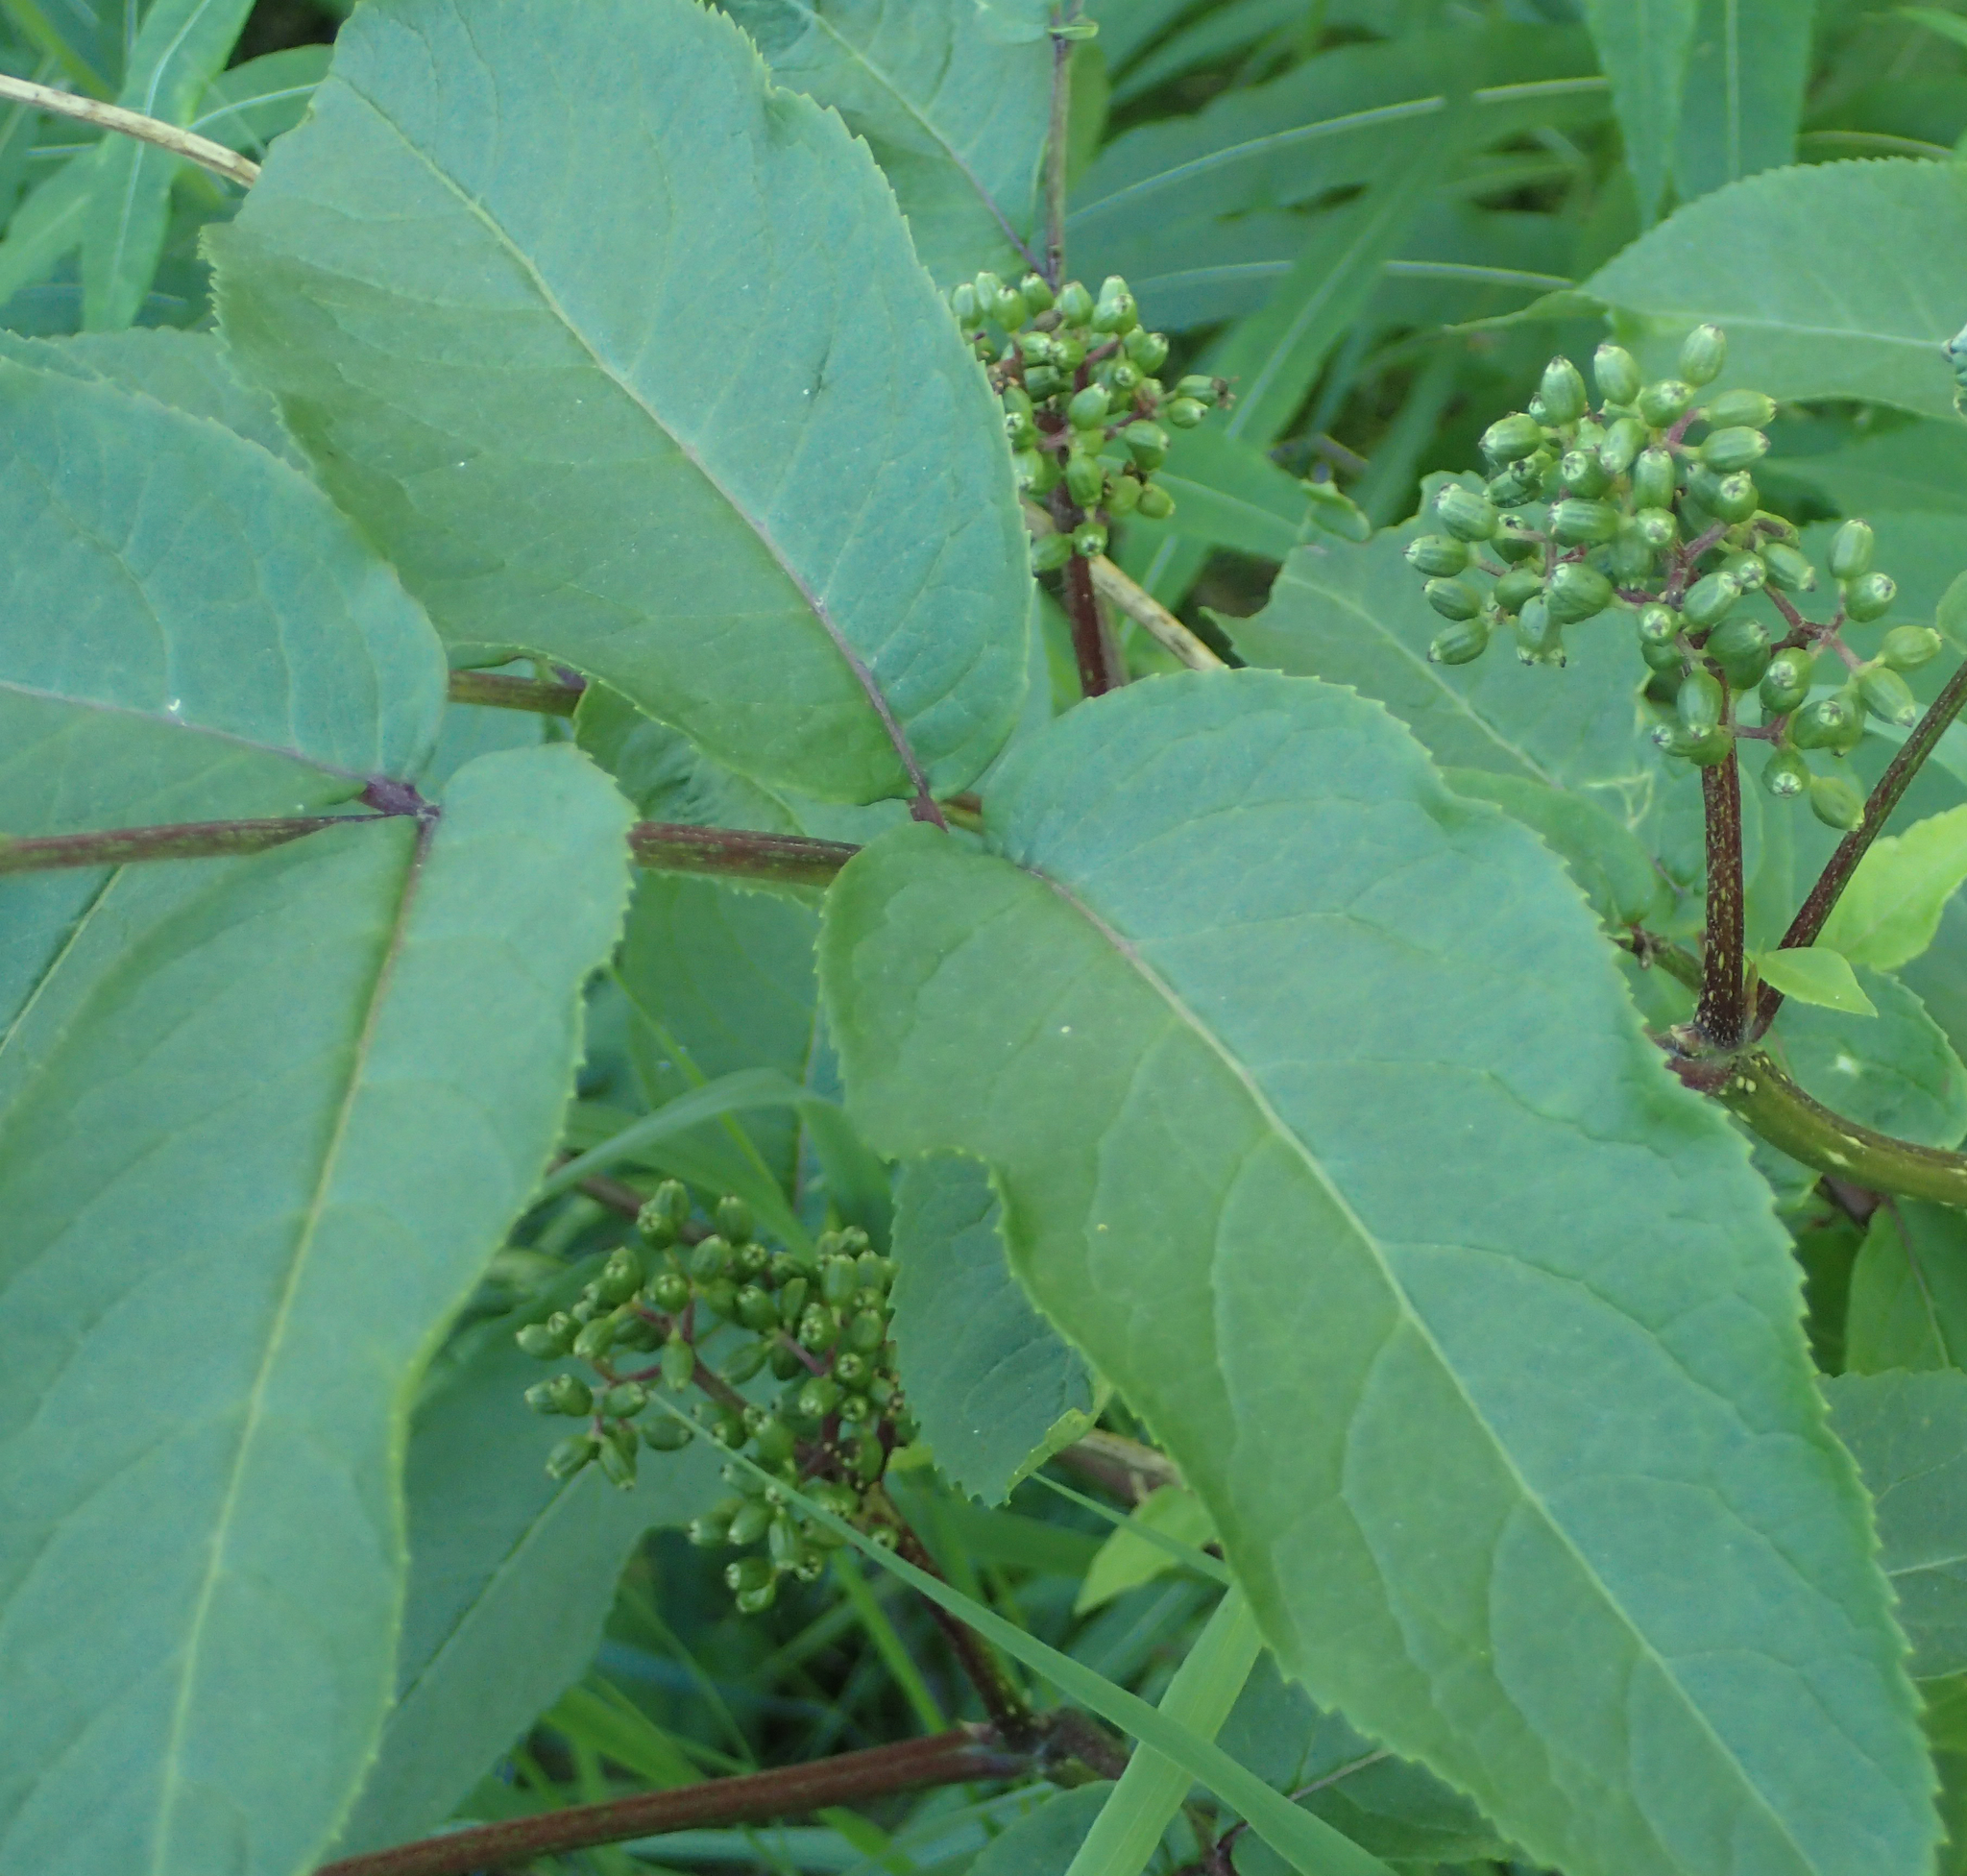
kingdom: Plantae
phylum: Tracheophyta
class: Magnoliopsida
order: Dipsacales
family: Viburnaceae
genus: Sambucus
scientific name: Sambucus racemosa
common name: Red-berried elder
